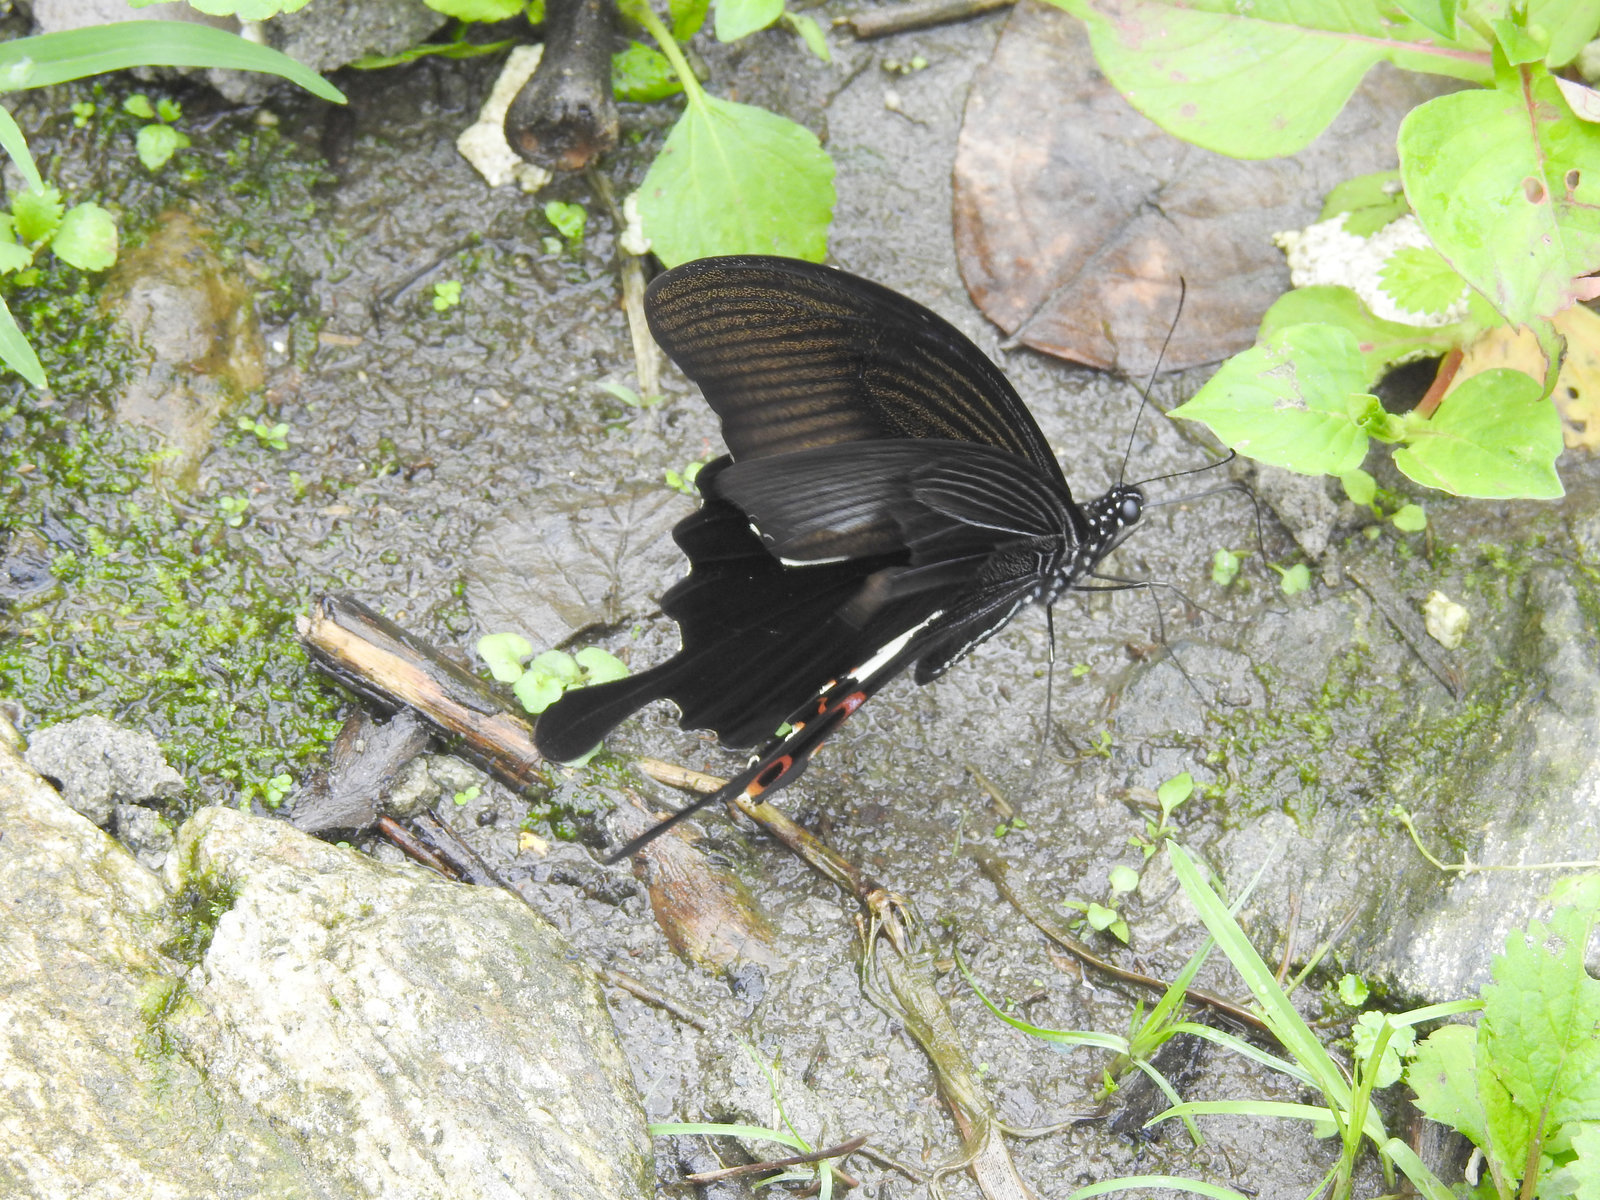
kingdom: Animalia
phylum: Arthropoda
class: Insecta
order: Lepidoptera
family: Papilionidae
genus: Papilio
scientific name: Papilio helenus
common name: Red helen
